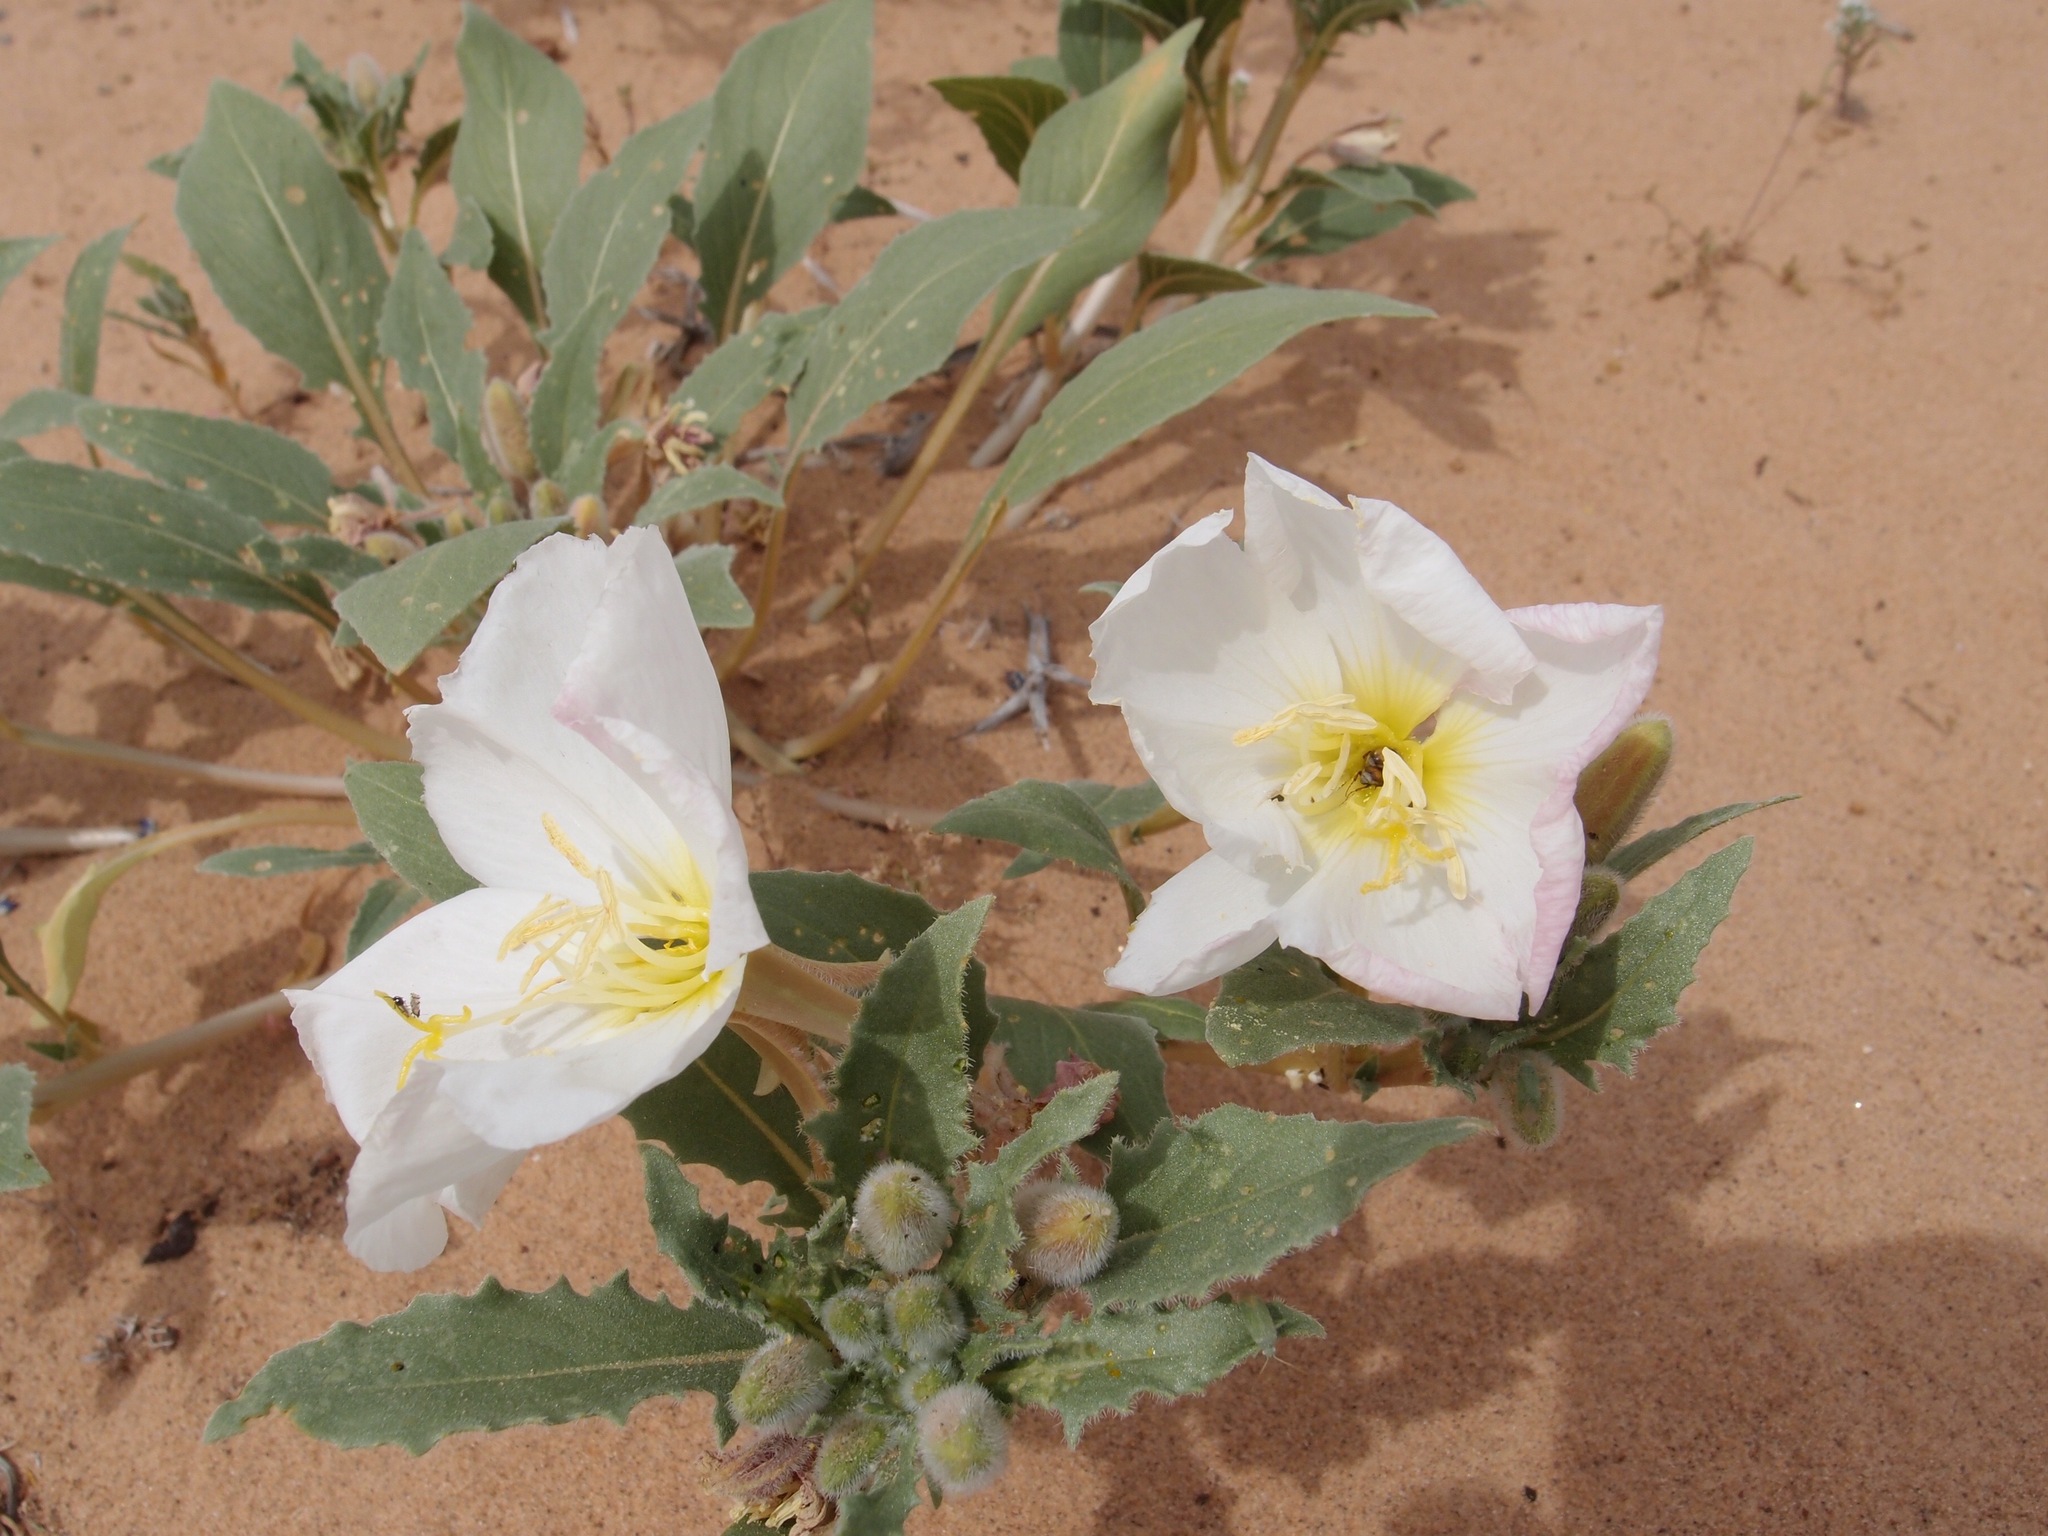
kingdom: Plantae
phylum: Tracheophyta
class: Magnoliopsida
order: Myrtales
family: Onagraceae
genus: Oenothera
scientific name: Oenothera deltoides
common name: Basket evening-primrose
